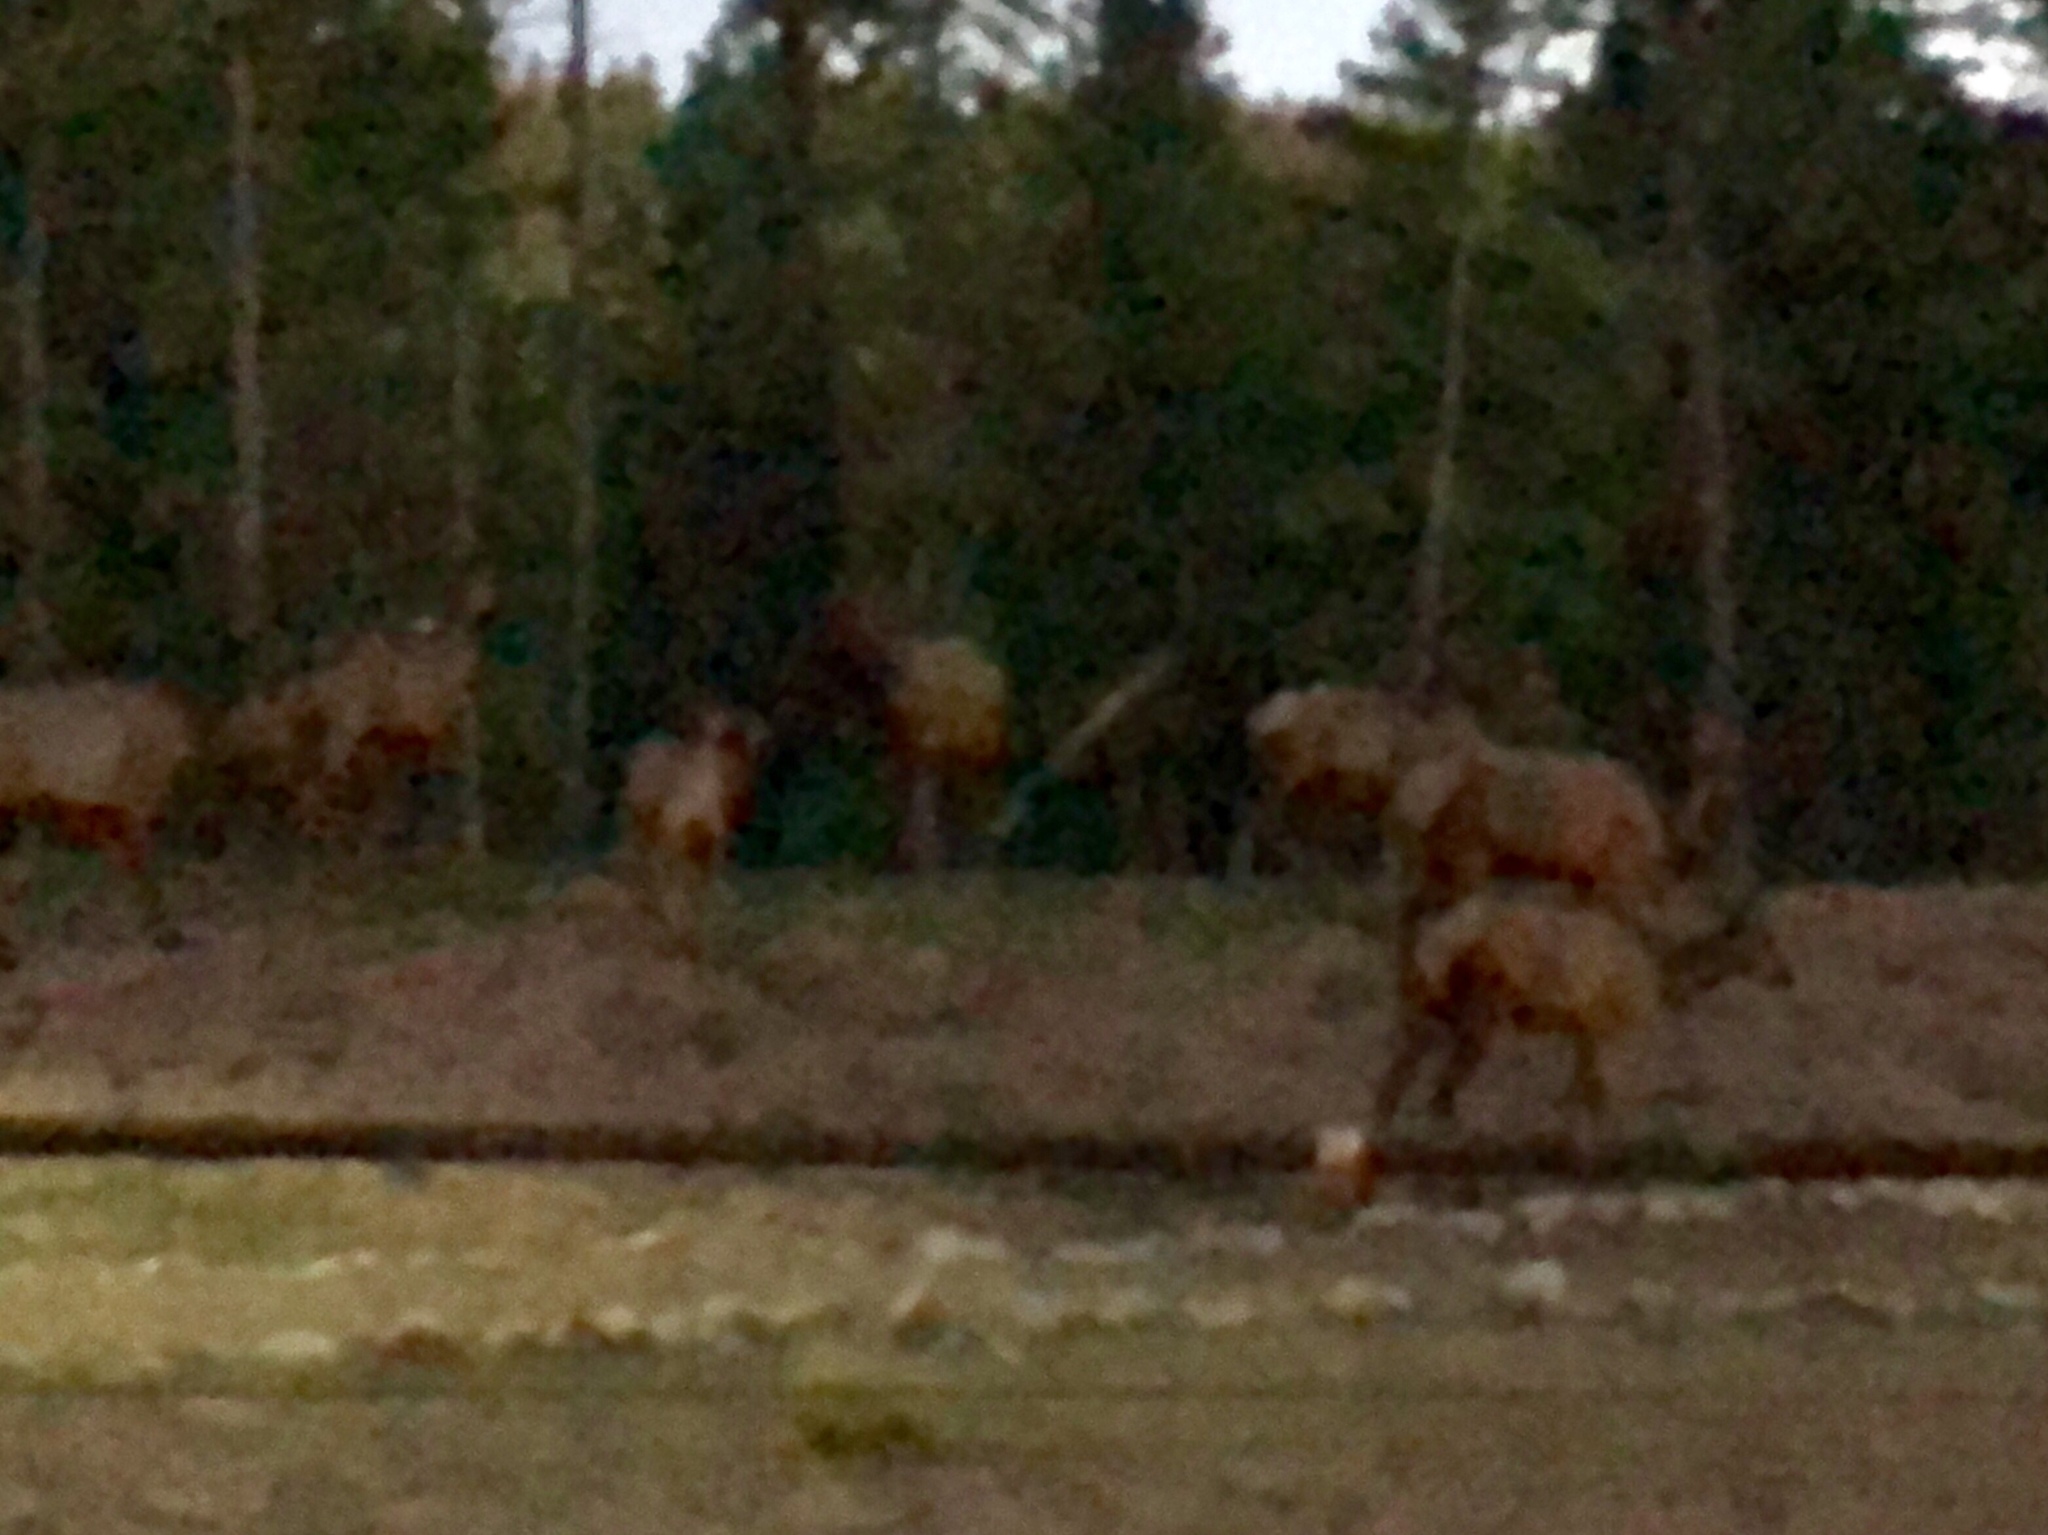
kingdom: Animalia
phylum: Chordata
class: Mammalia
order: Artiodactyla
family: Cervidae
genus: Cervus
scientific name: Cervus elaphus
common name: Red deer
